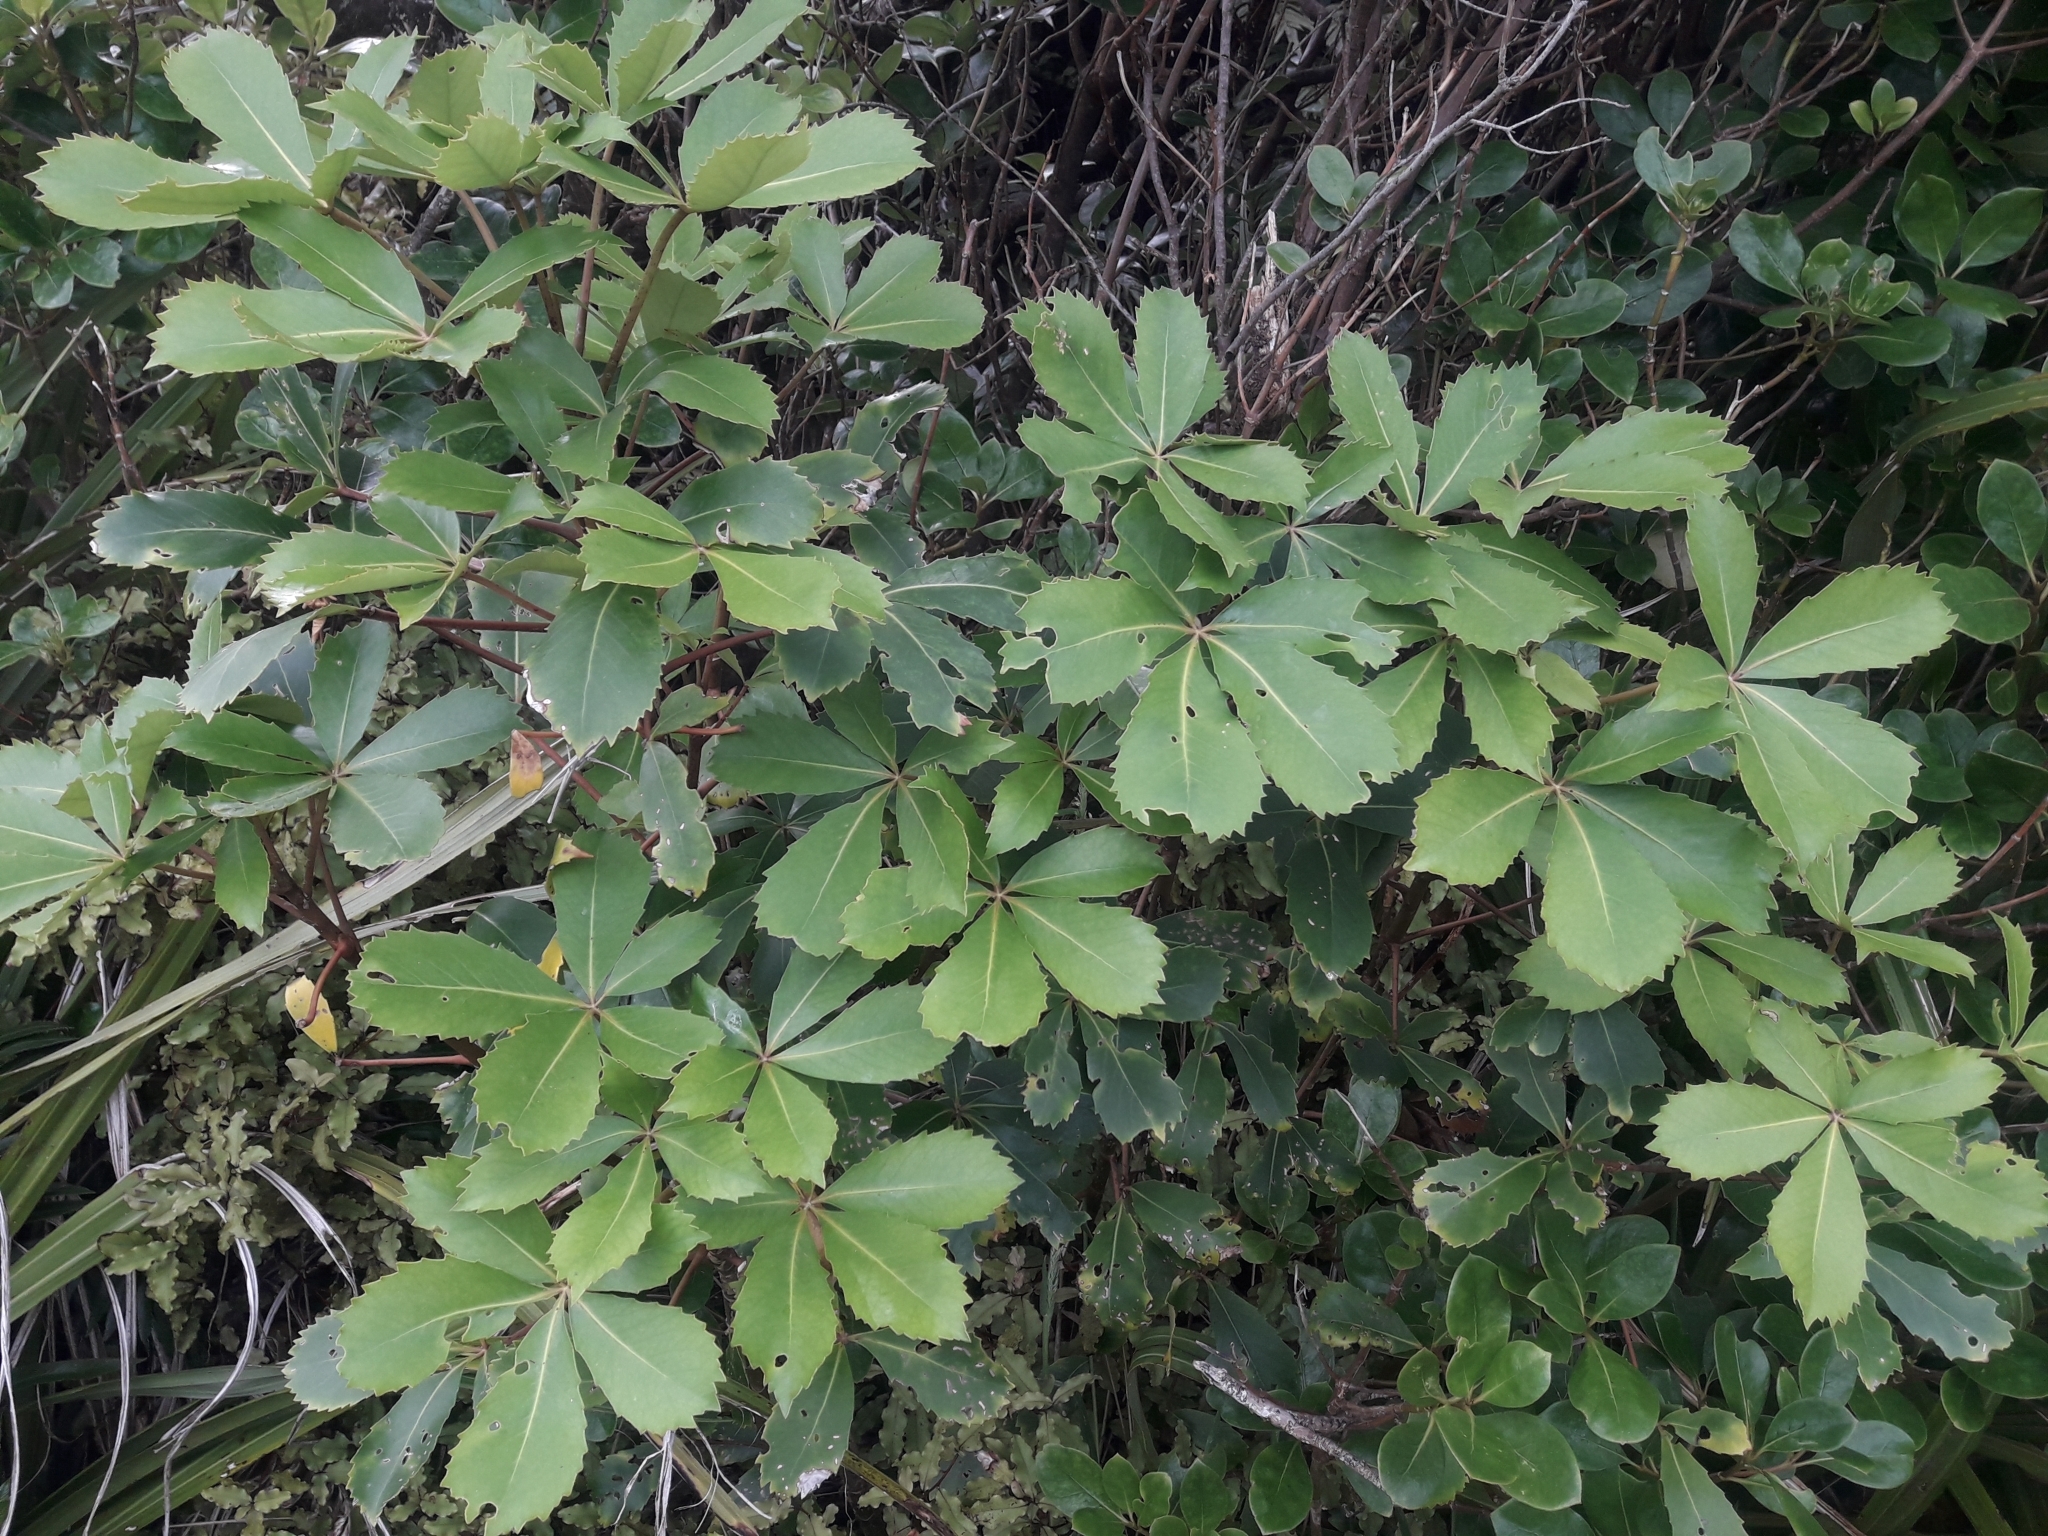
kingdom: Plantae
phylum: Tracheophyta
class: Magnoliopsida
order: Apiales
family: Araliaceae
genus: Neopanax
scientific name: Neopanax colensoi
